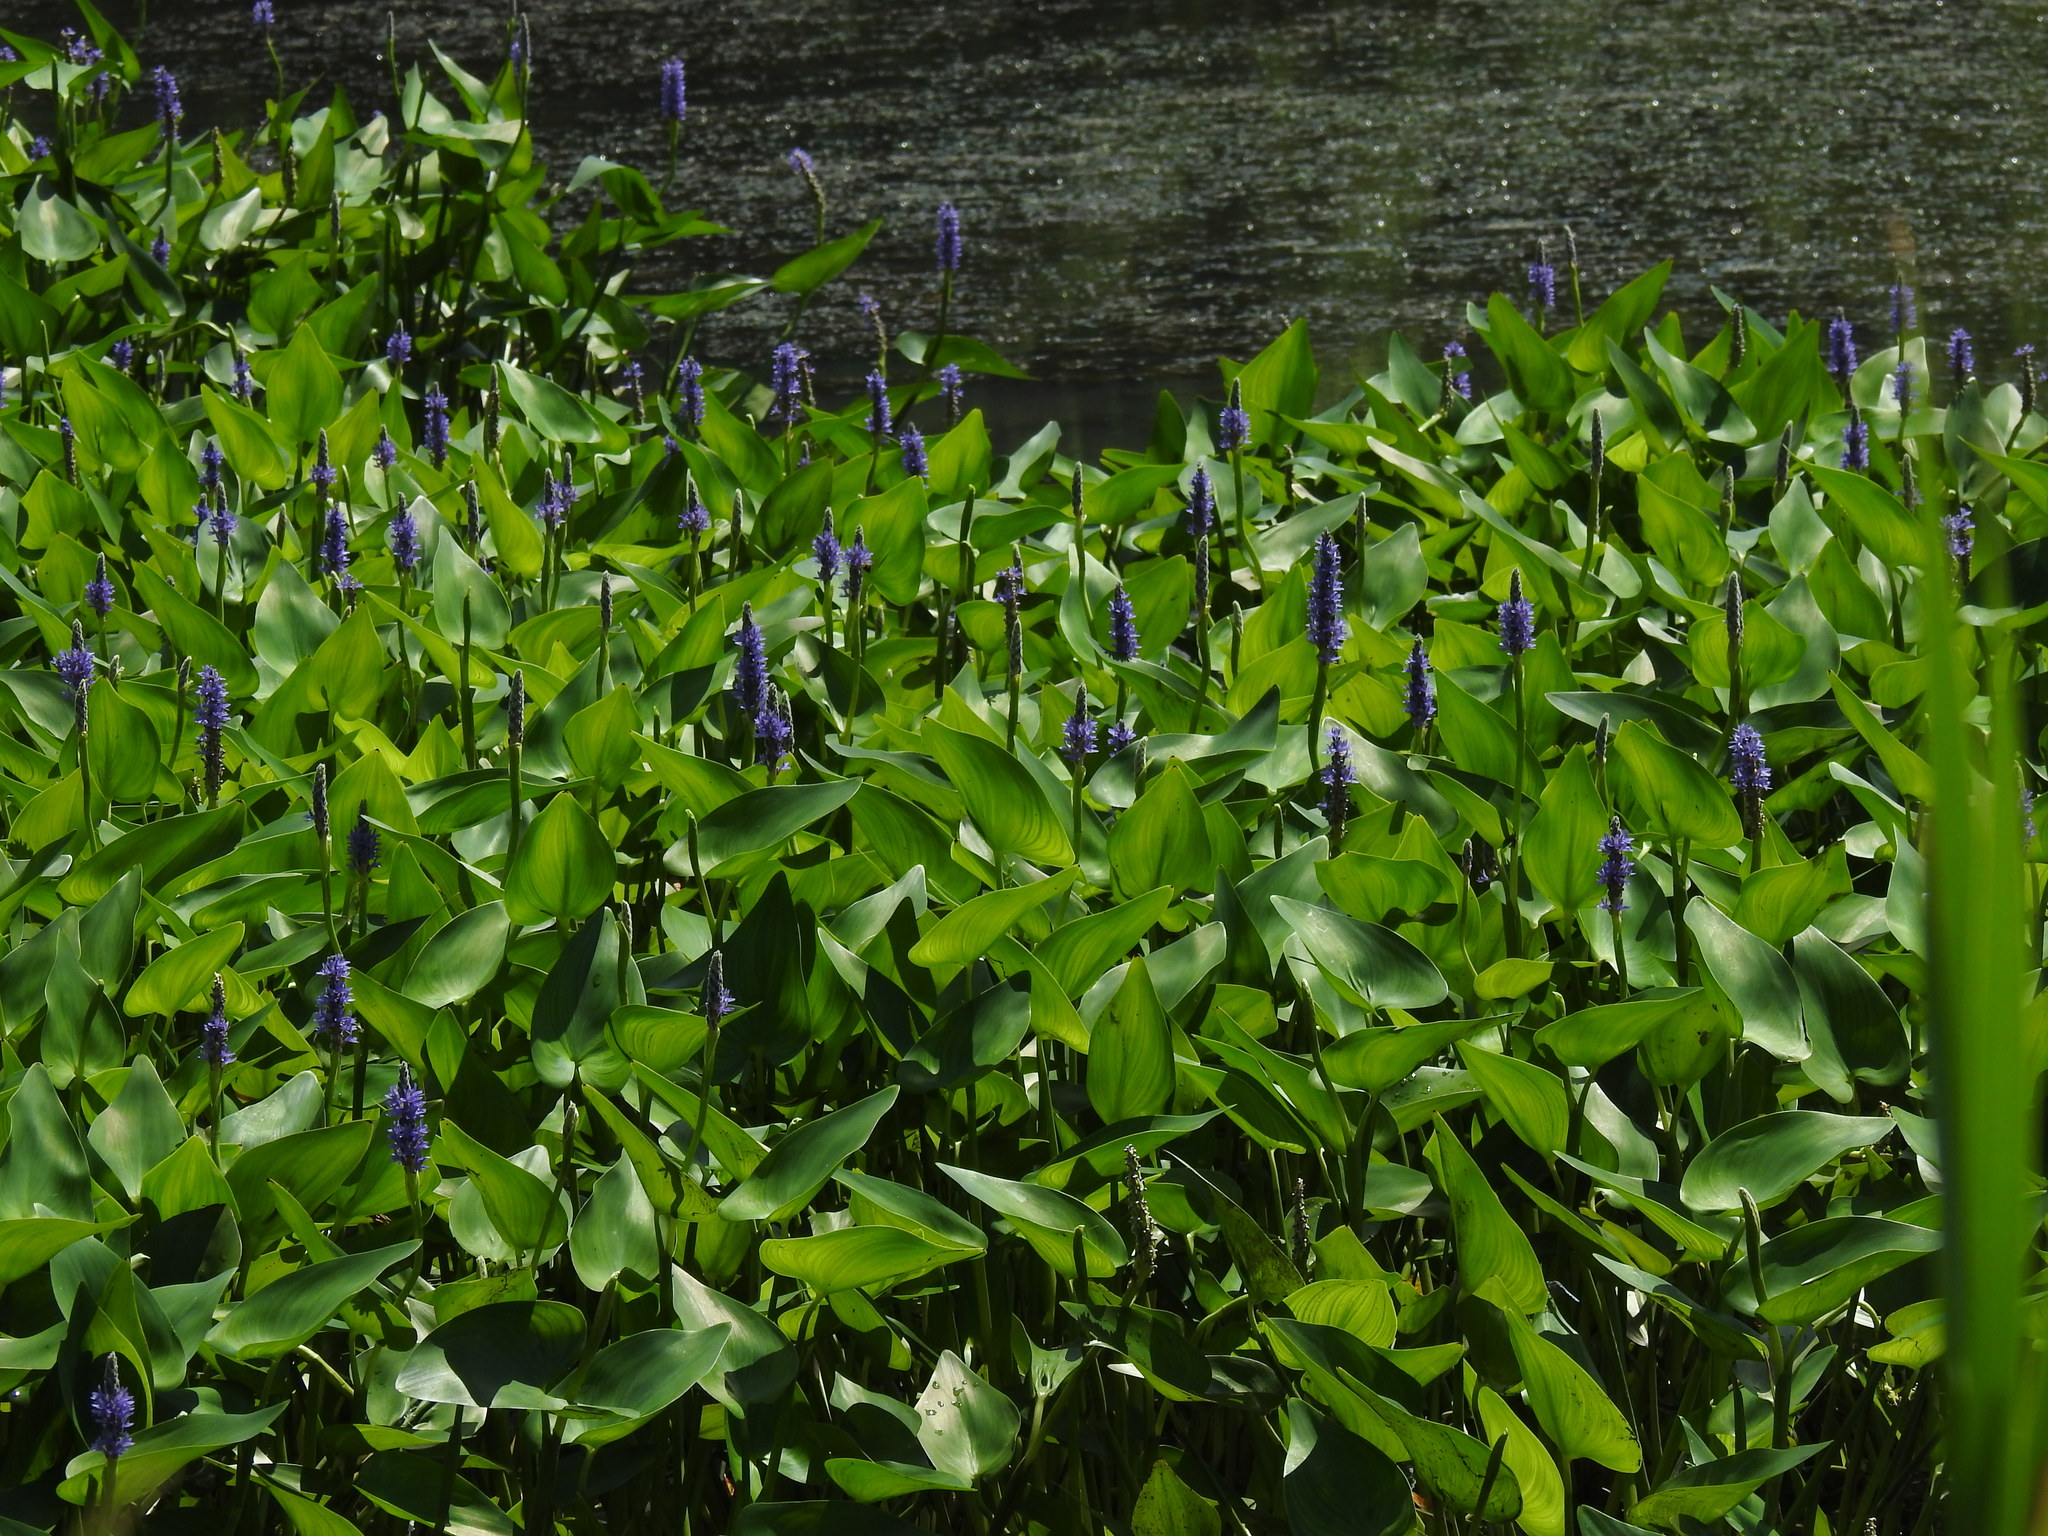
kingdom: Plantae
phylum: Tracheophyta
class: Liliopsida
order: Commelinales
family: Pontederiaceae
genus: Pontederia
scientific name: Pontederia cordata
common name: Pickerelweed
